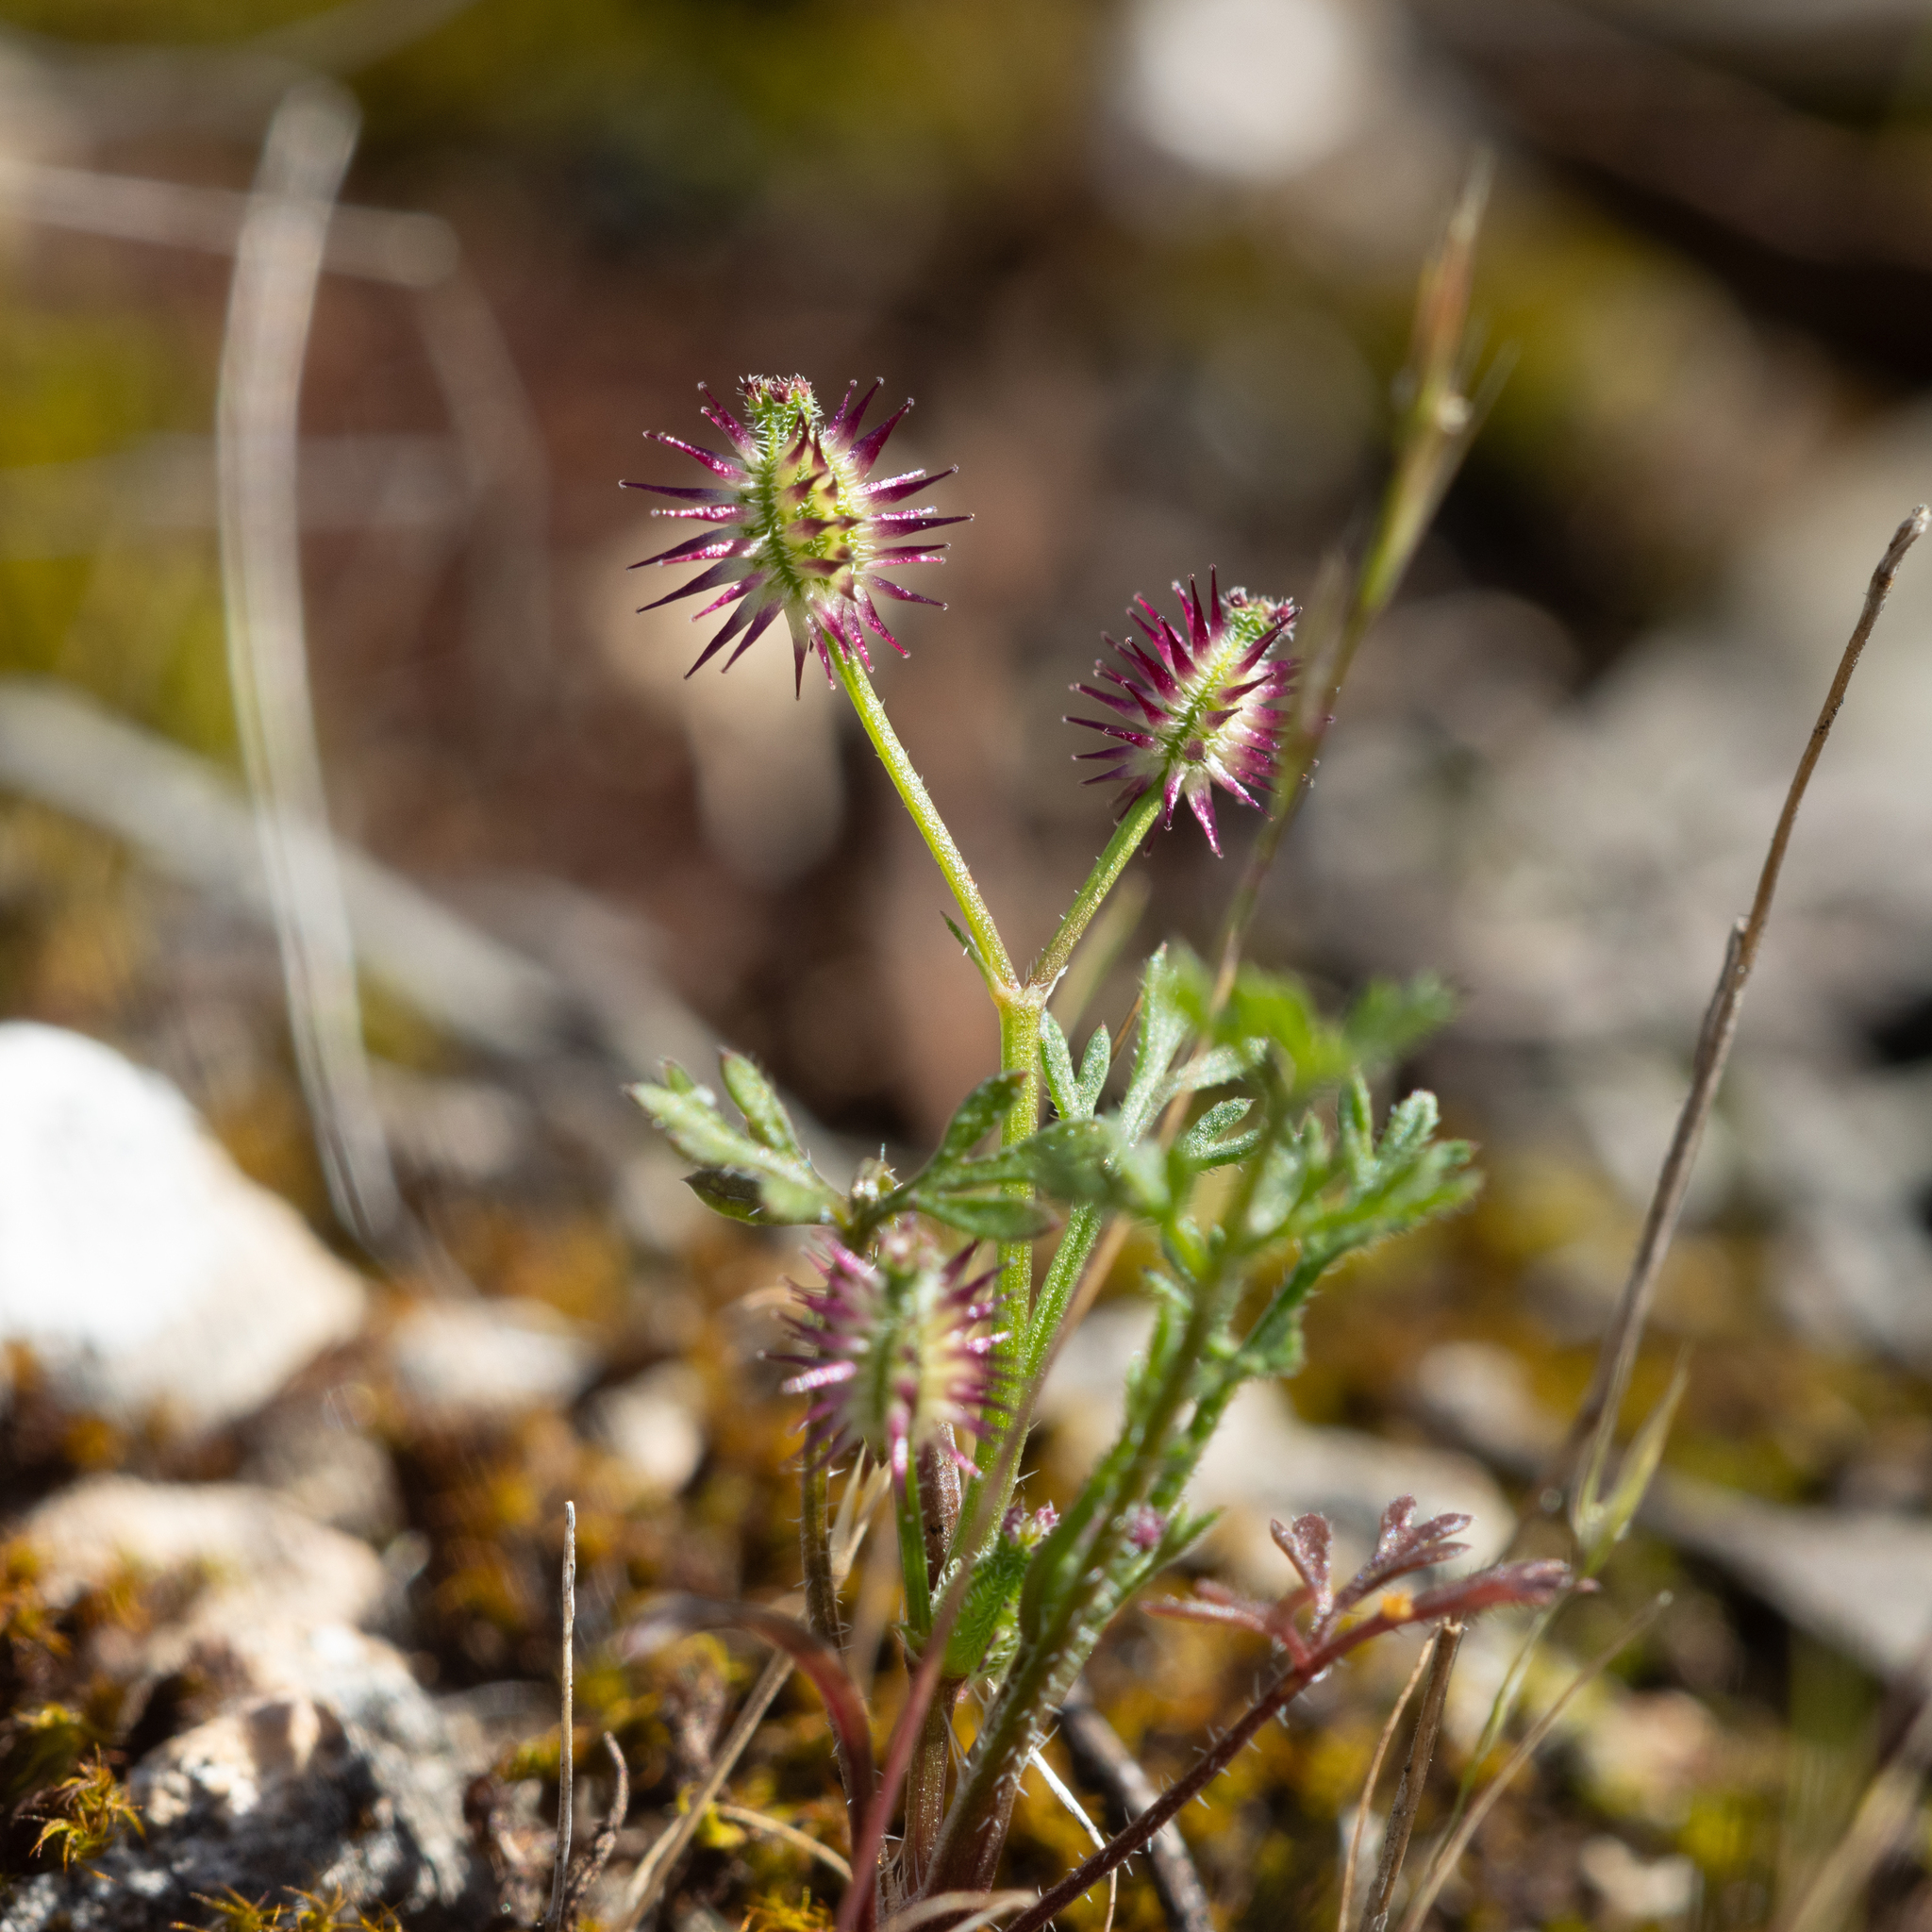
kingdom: Plantae
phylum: Tracheophyta
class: Magnoliopsida
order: Apiales
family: Apiaceae
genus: Daucus
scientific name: Daucus glochidiatus
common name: Australian carrot
